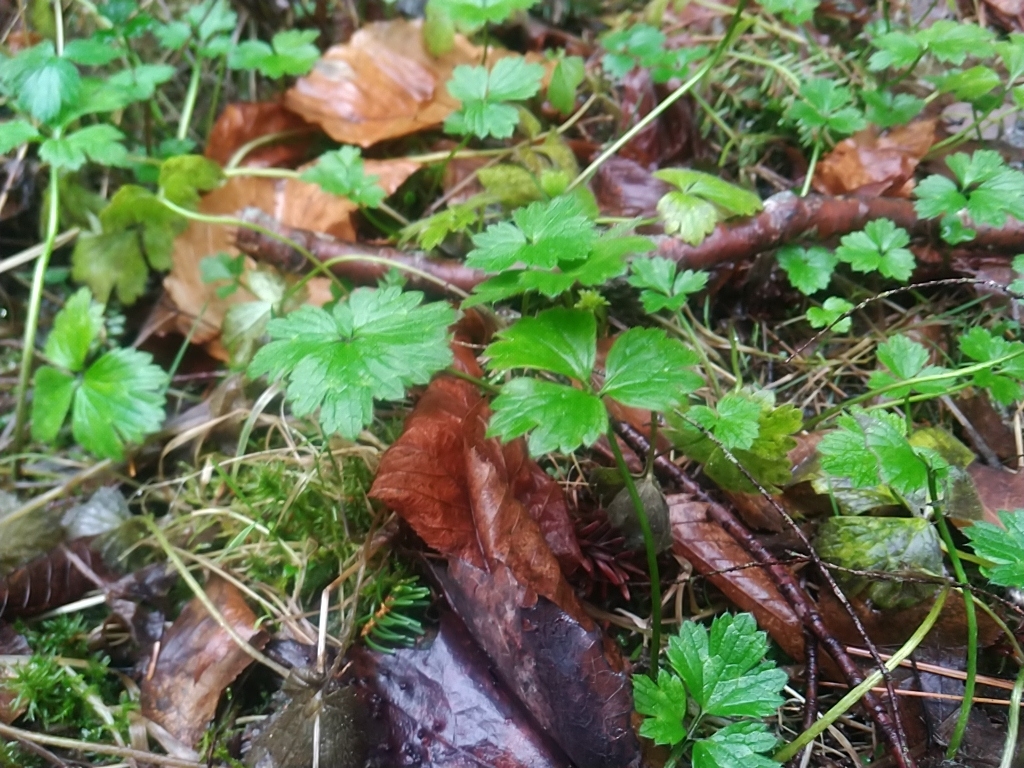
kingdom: Plantae
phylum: Tracheophyta
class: Magnoliopsida
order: Ranunculales
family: Ranunculaceae
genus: Ranunculus
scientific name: Ranunculus repens
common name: Creeping buttercup
